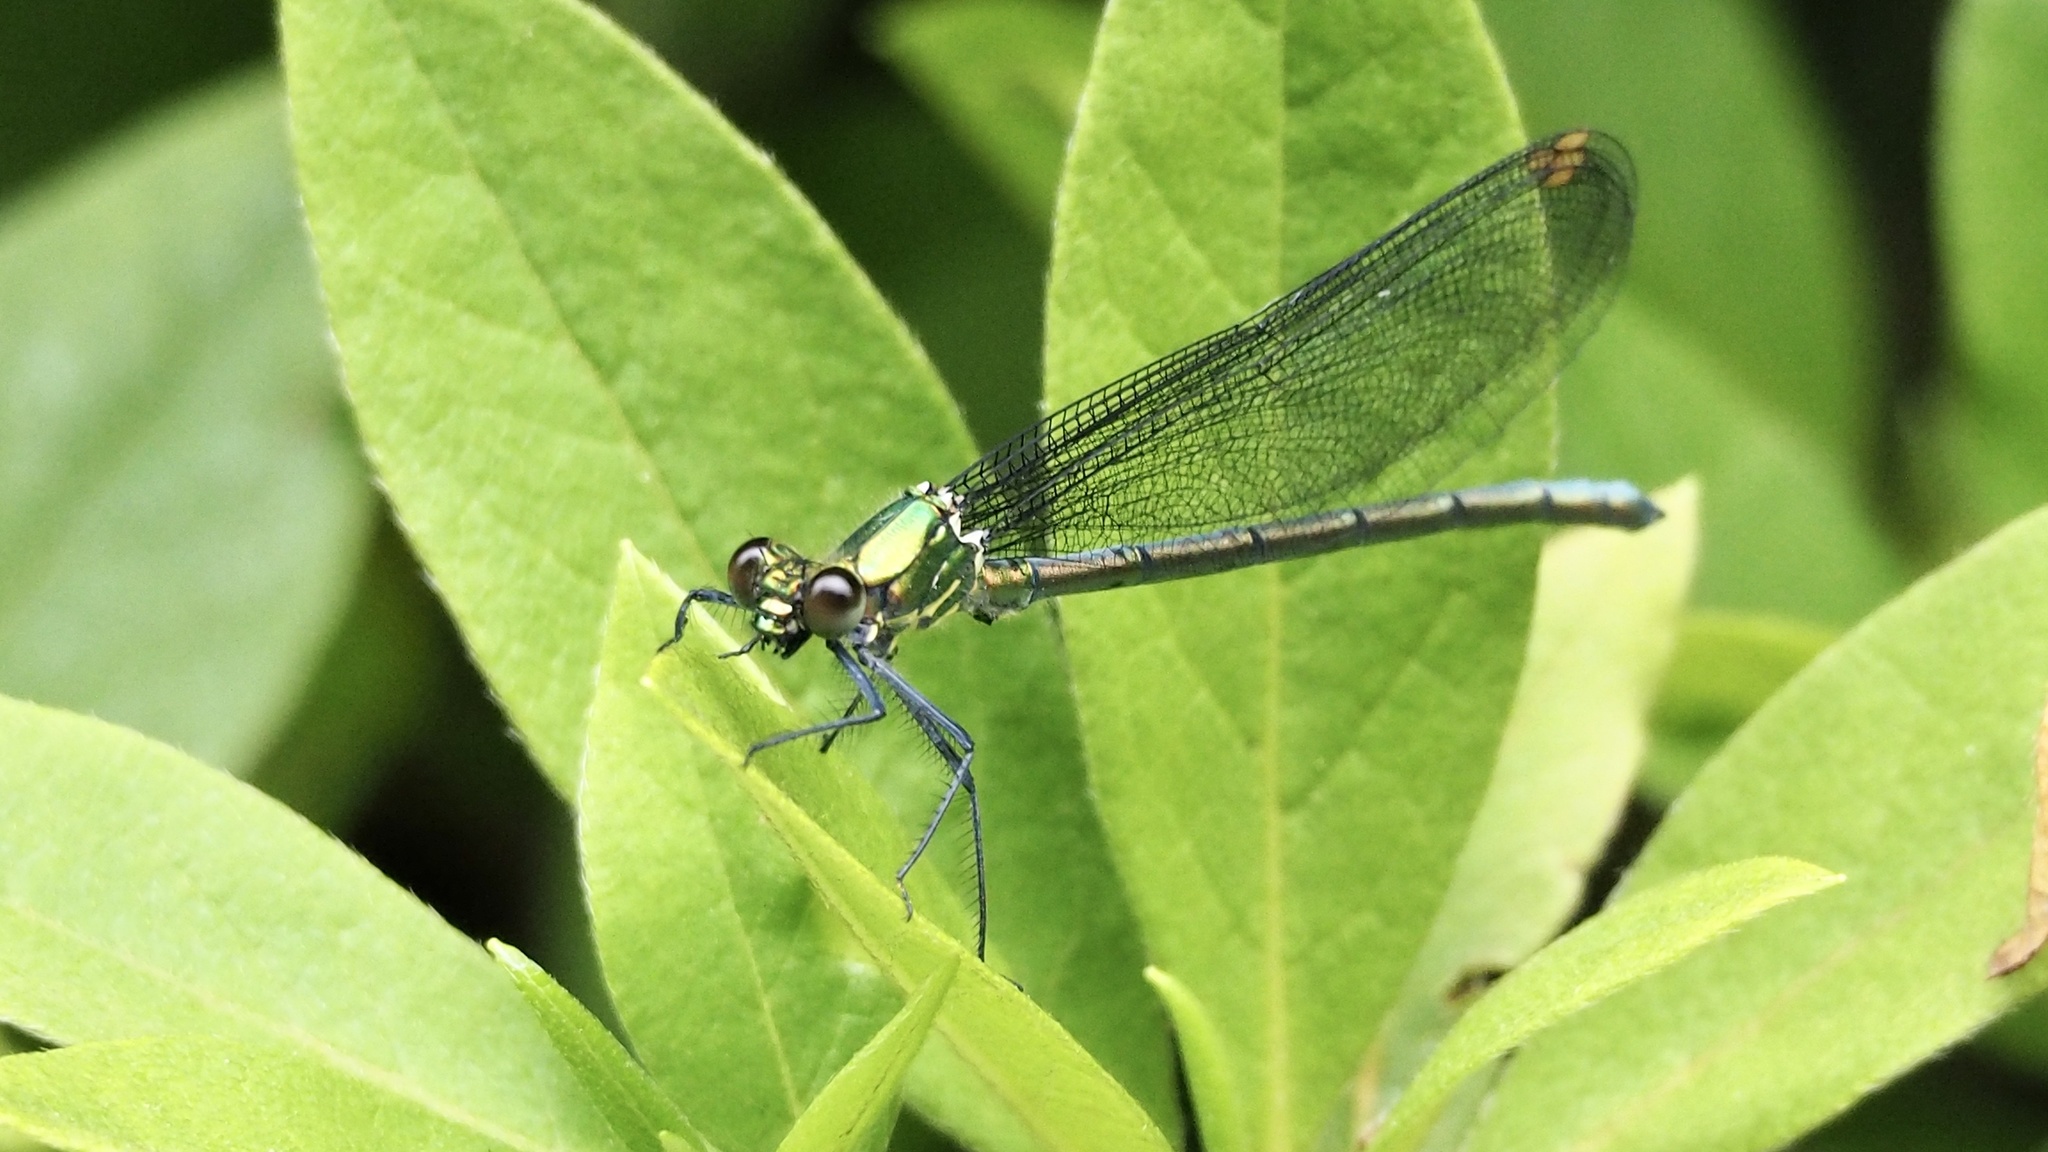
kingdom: Animalia
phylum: Arthropoda
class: Insecta
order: Odonata
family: Calopterygidae
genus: Mnais
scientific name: Mnais pruinosa
